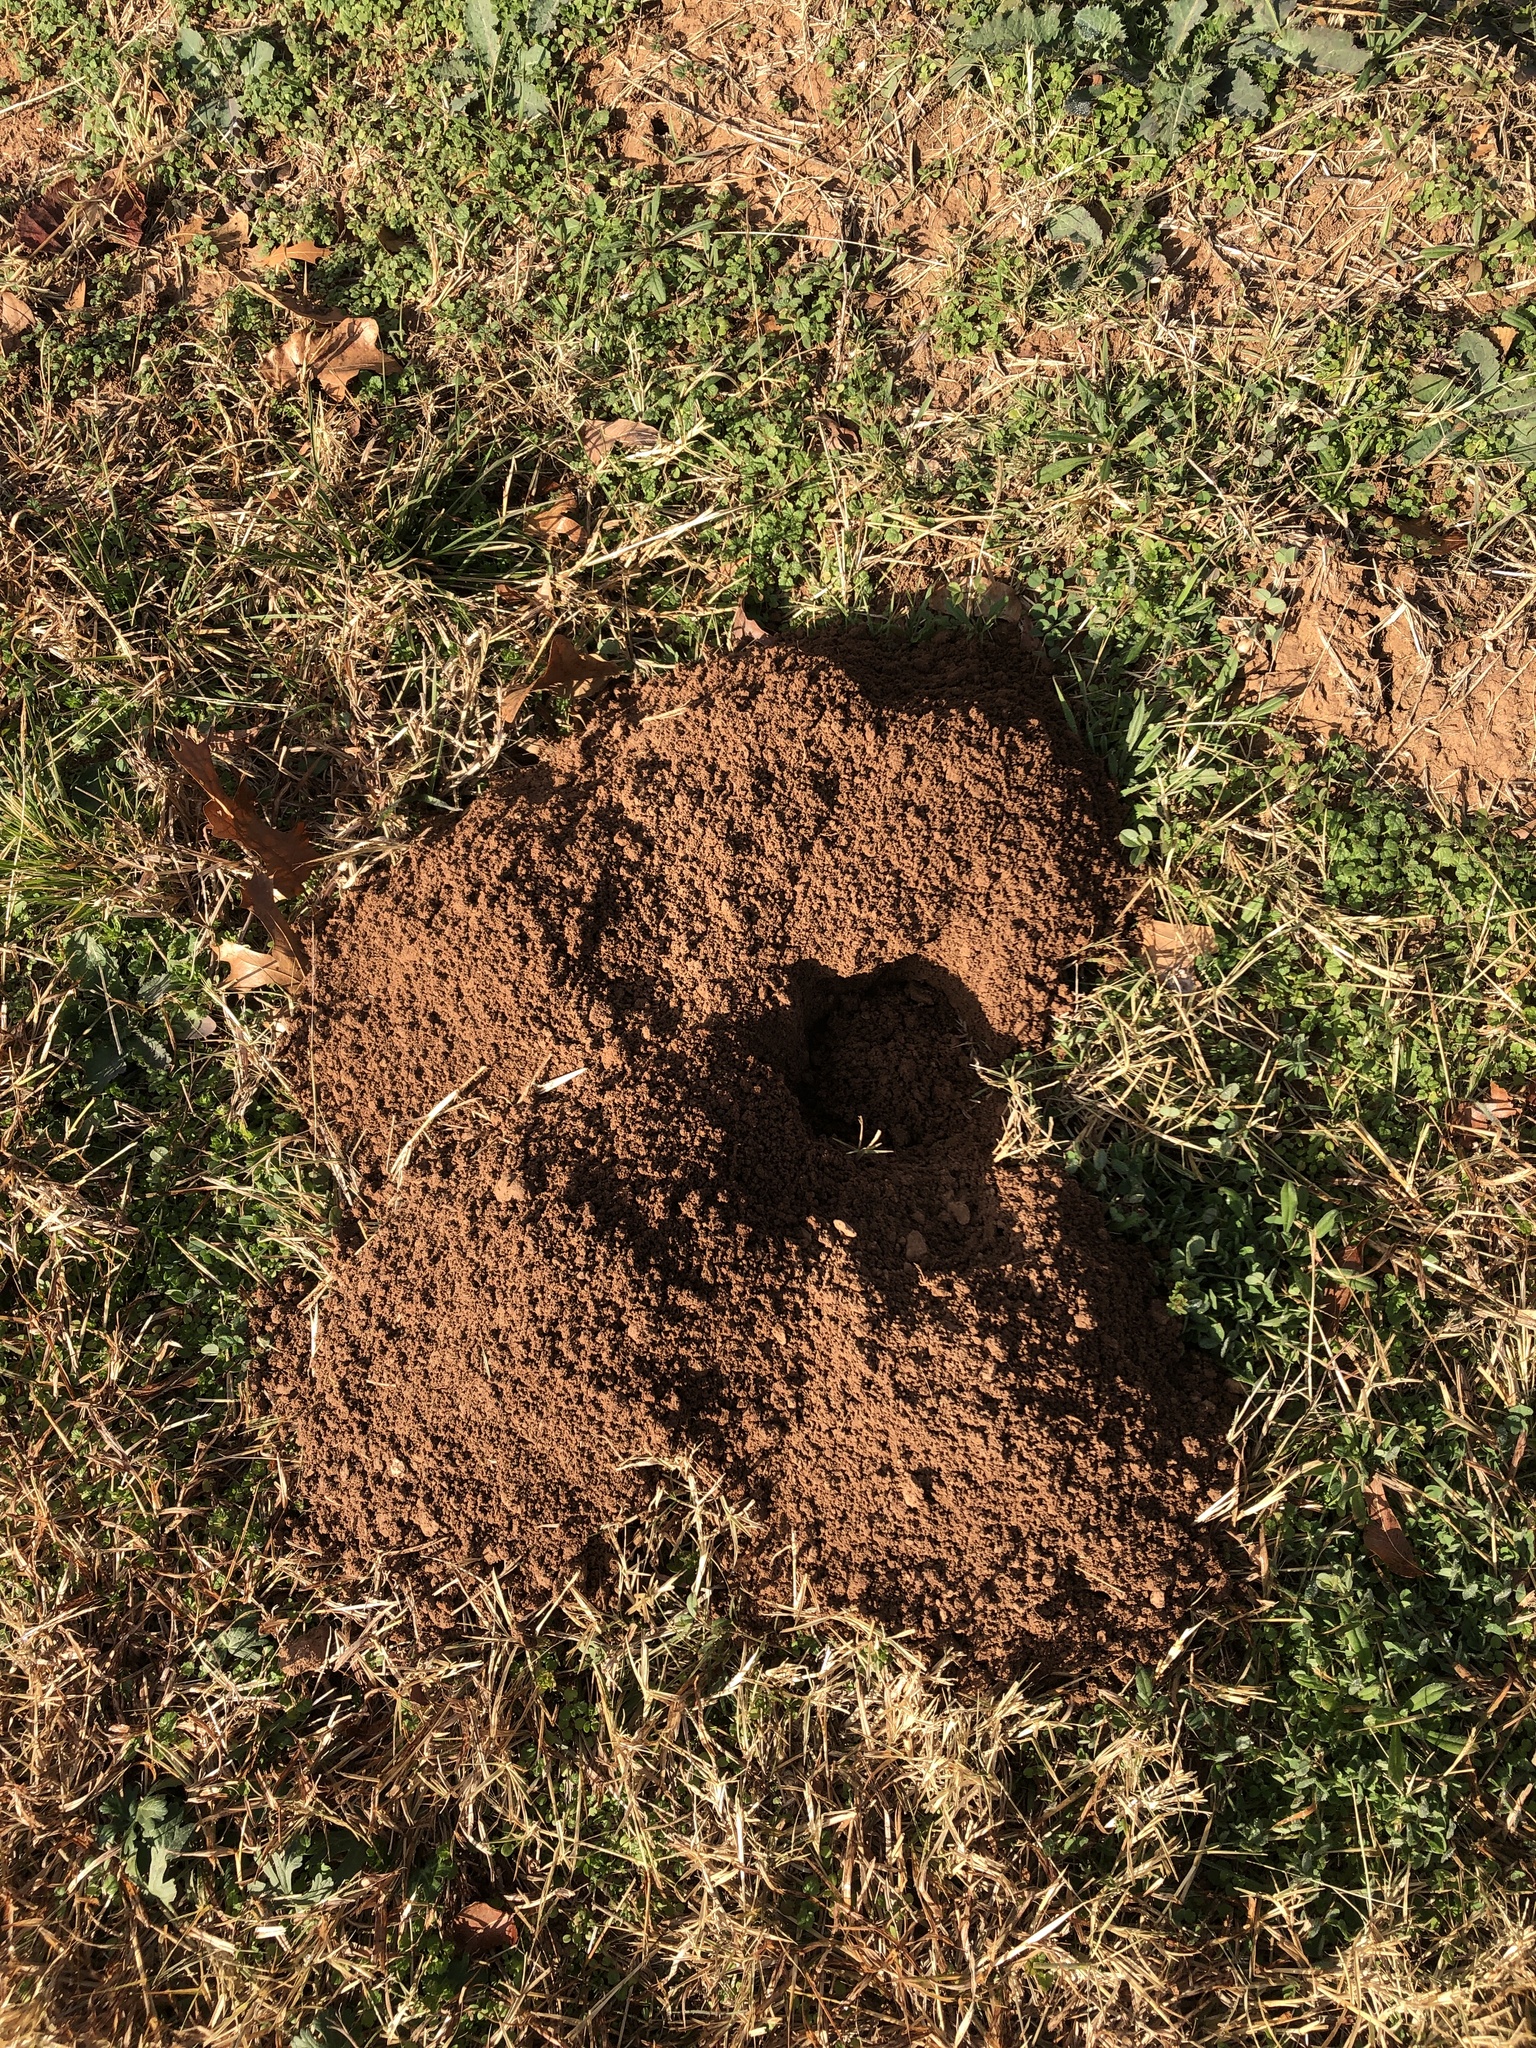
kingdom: Animalia
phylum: Chordata
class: Mammalia
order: Rodentia
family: Geomyidae
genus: Geomys
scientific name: Geomys bursarius
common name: Plains pocket gopher
